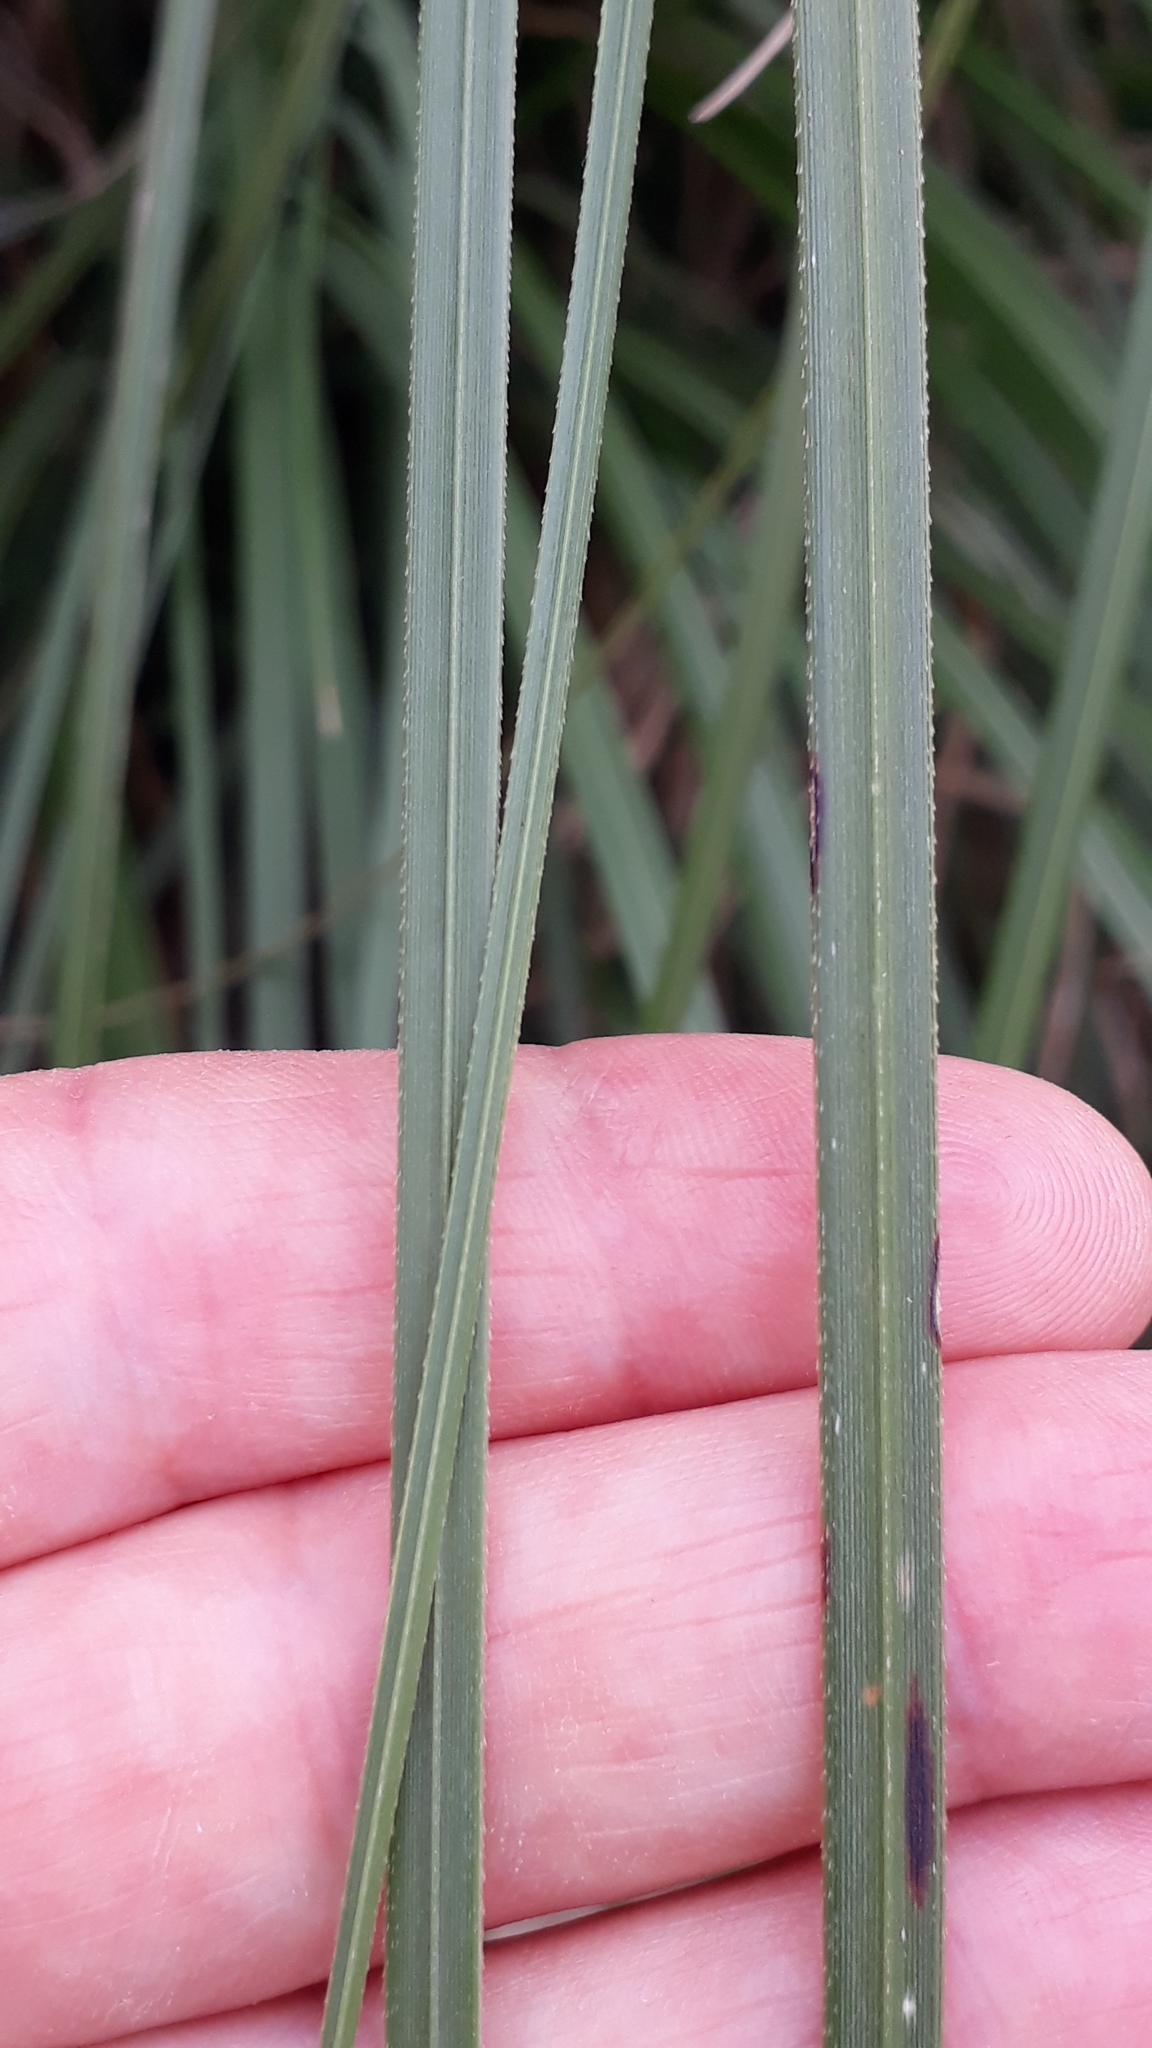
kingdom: Plantae
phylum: Tracheophyta
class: Liliopsida
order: Poales
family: Poaceae
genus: Cortaderia
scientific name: Cortaderia selloana
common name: Uruguayan pampas grass
